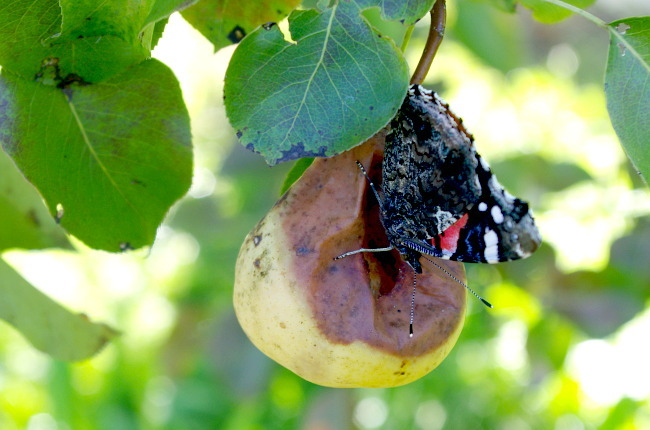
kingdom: Animalia
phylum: Arthropoda
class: Insecta
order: Lepidoptera
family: Nymphalidae
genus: Vanessa
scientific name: Vanessa atalanta
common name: Red admiral
